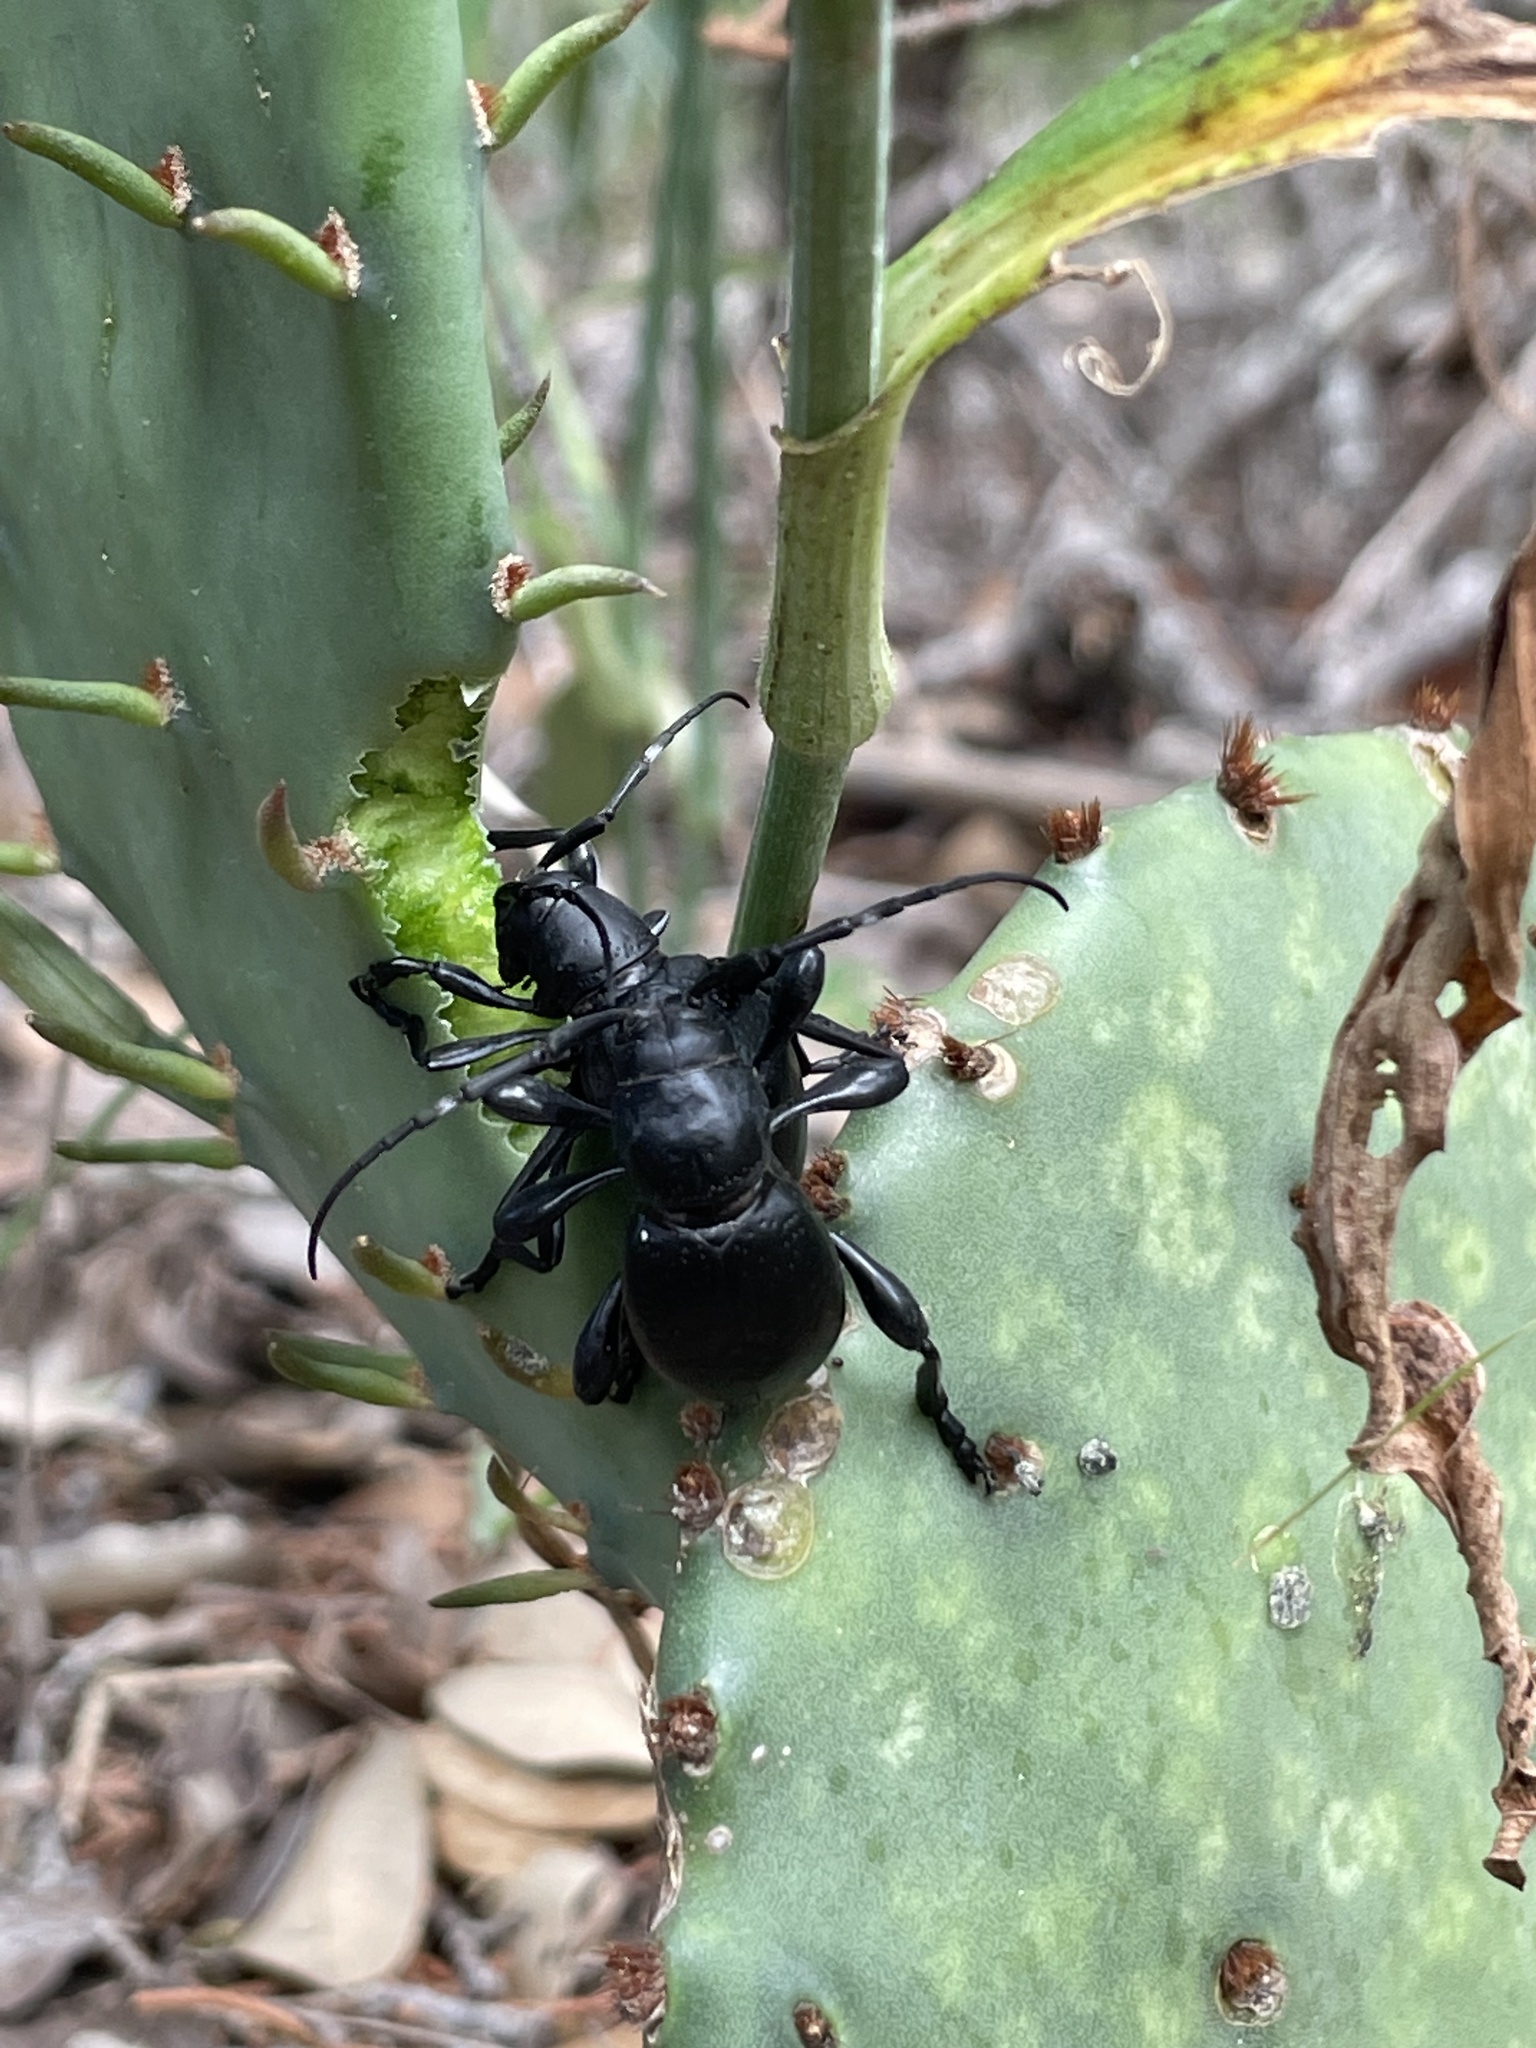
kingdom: Animalia
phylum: Arthropoda
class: Insecta
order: Coleoptera
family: Cerambycidae
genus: Moneilema
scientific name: Moneilema armatum
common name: Long-horned beetle
